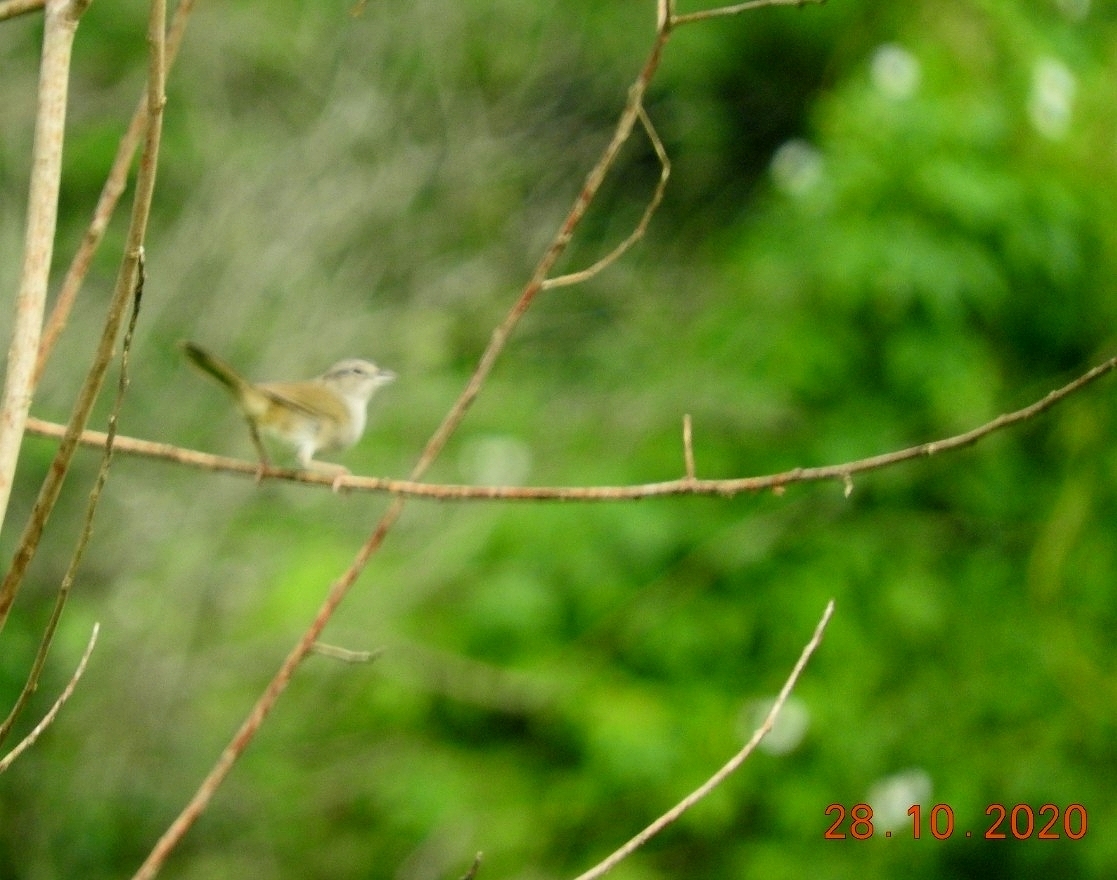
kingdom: Animalia
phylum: Chordata
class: Aves
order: Passeriformes
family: Passerellidae
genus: Arremonops
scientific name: Arremonops rufivirgatus
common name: Olive sparrow
